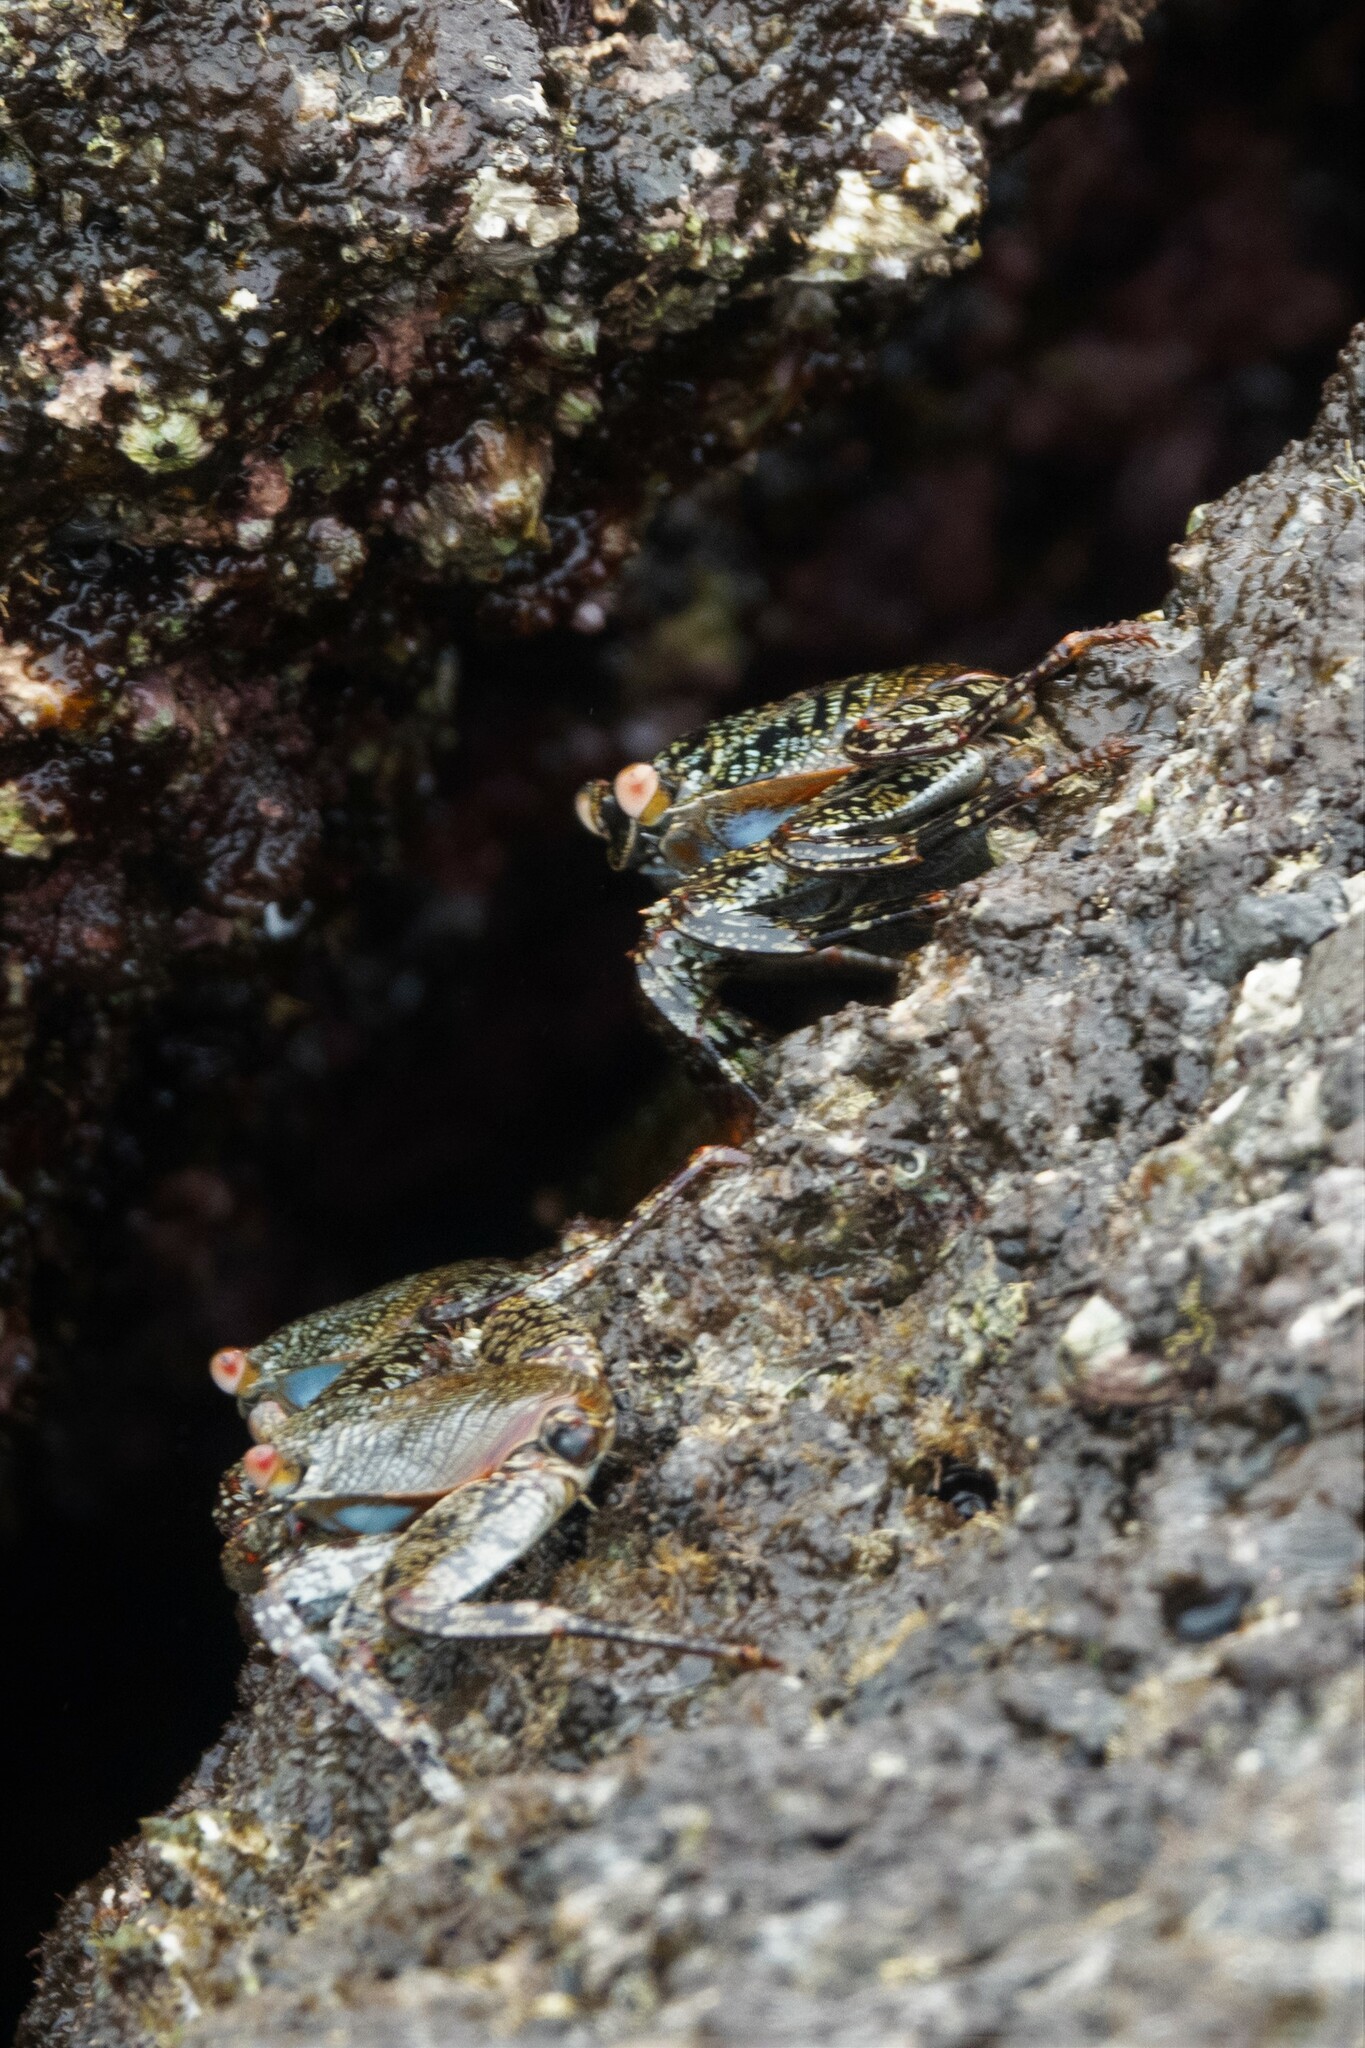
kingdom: Animalia
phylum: Arthropoda
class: Malacostraca
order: Decapoda
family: Grapsidae
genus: Grapsus
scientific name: Grapsus grapsus
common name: Sally lightfoot
